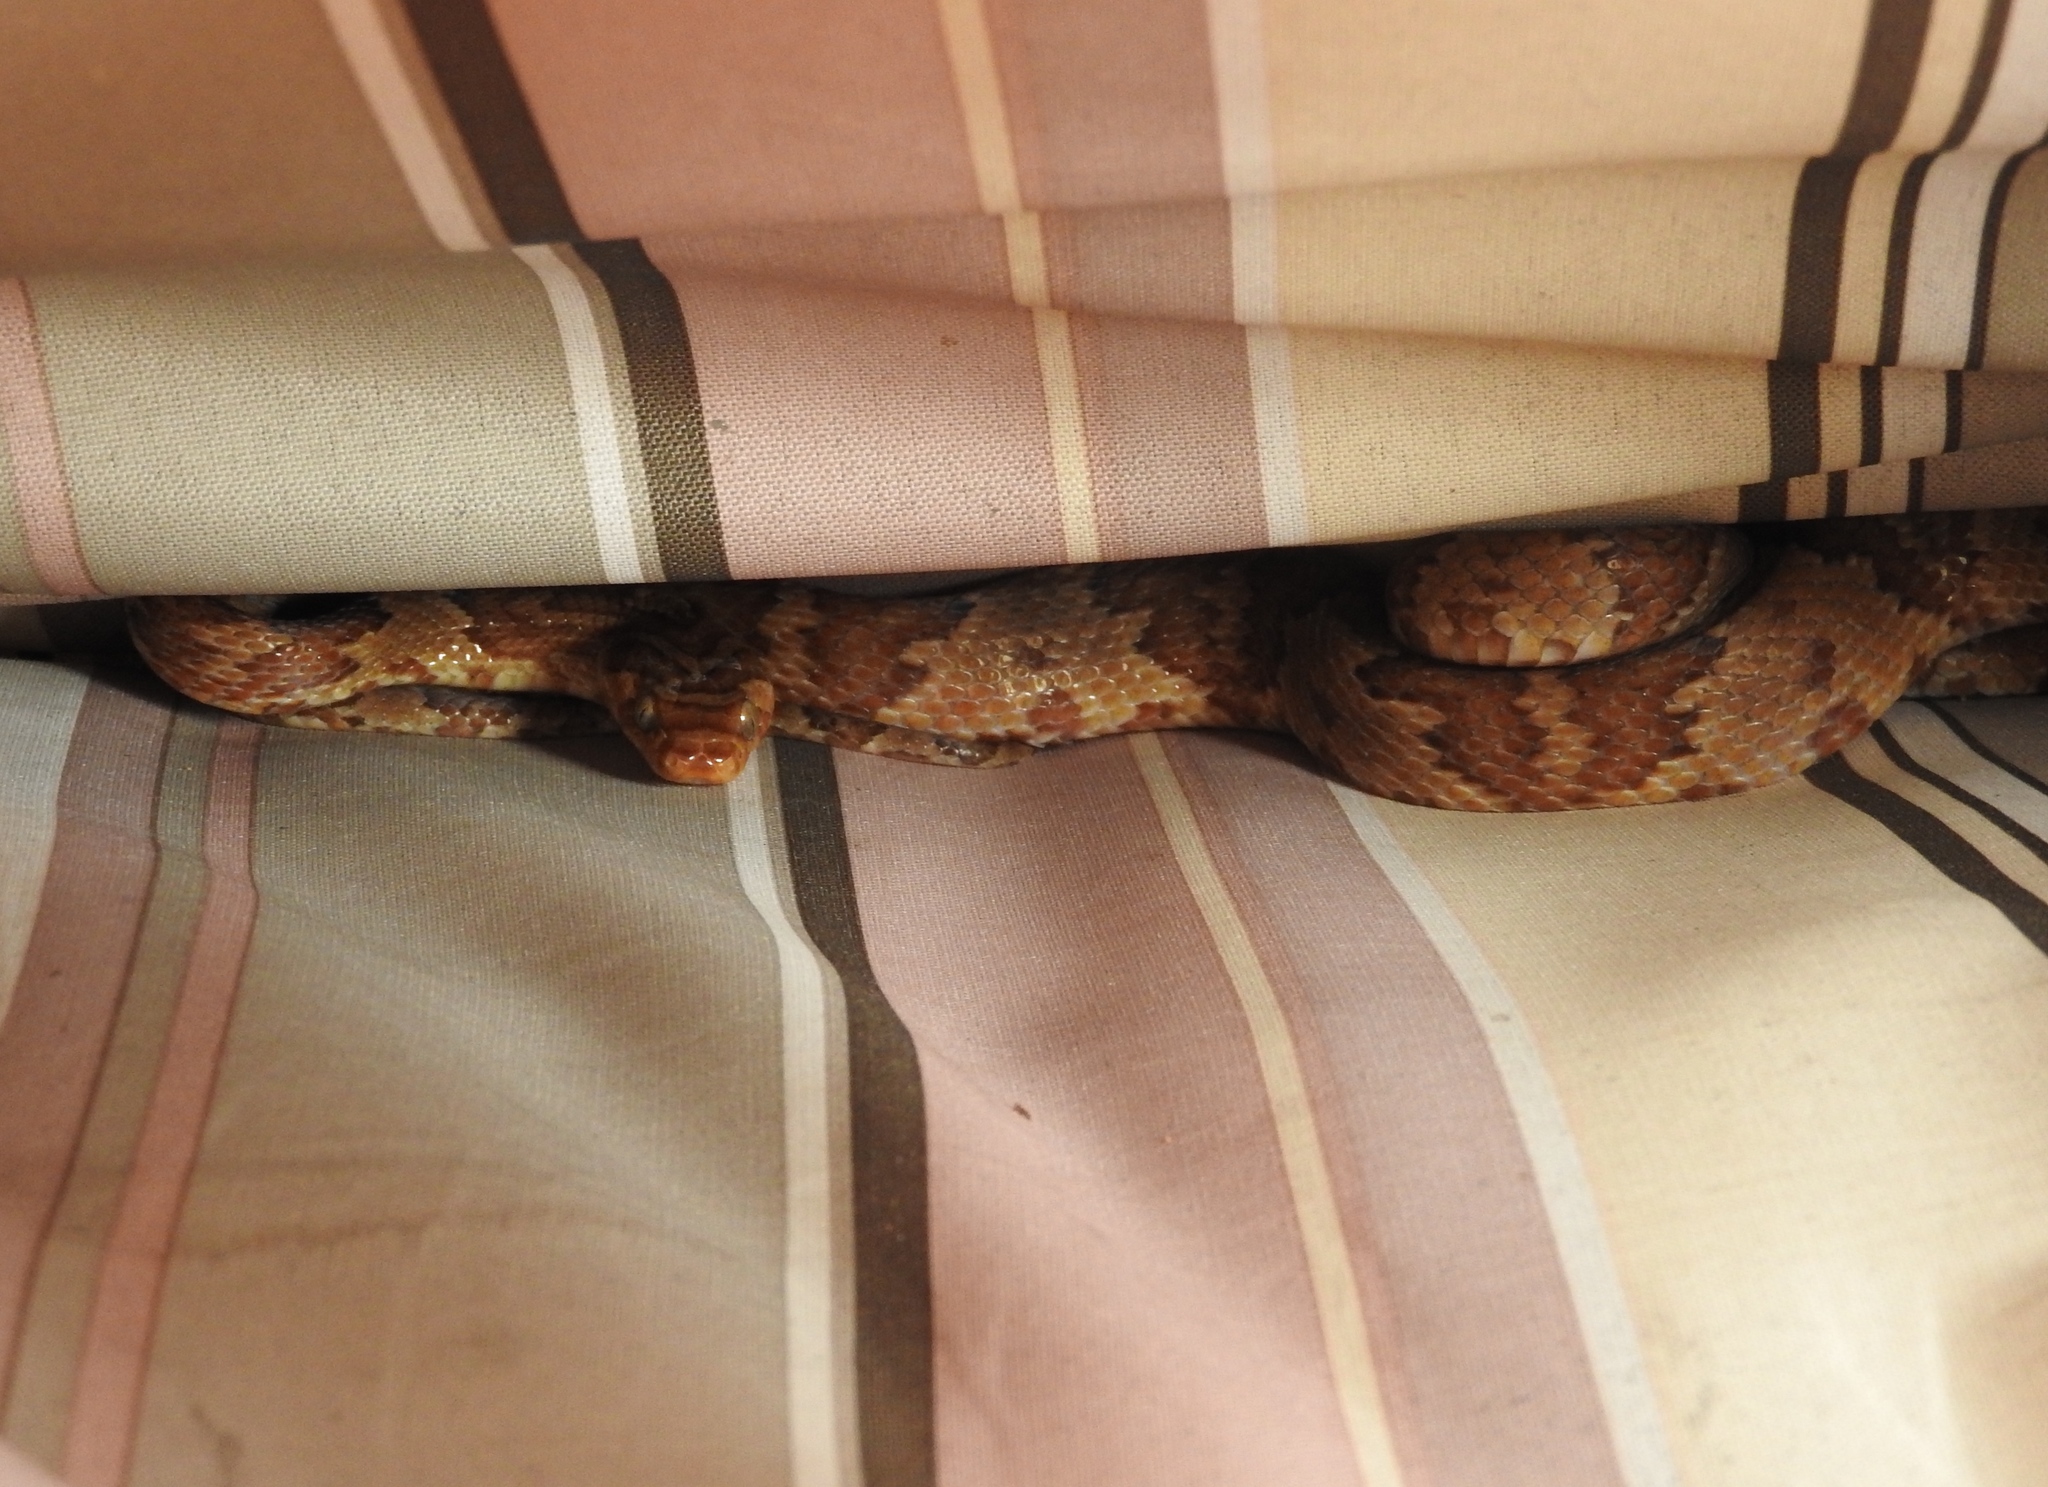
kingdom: Animalia
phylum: Chordata
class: Squamata
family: Colubridae
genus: Trimorphodon
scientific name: Trimorphodon paucimaculatus
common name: Sinaloan lyresnake
